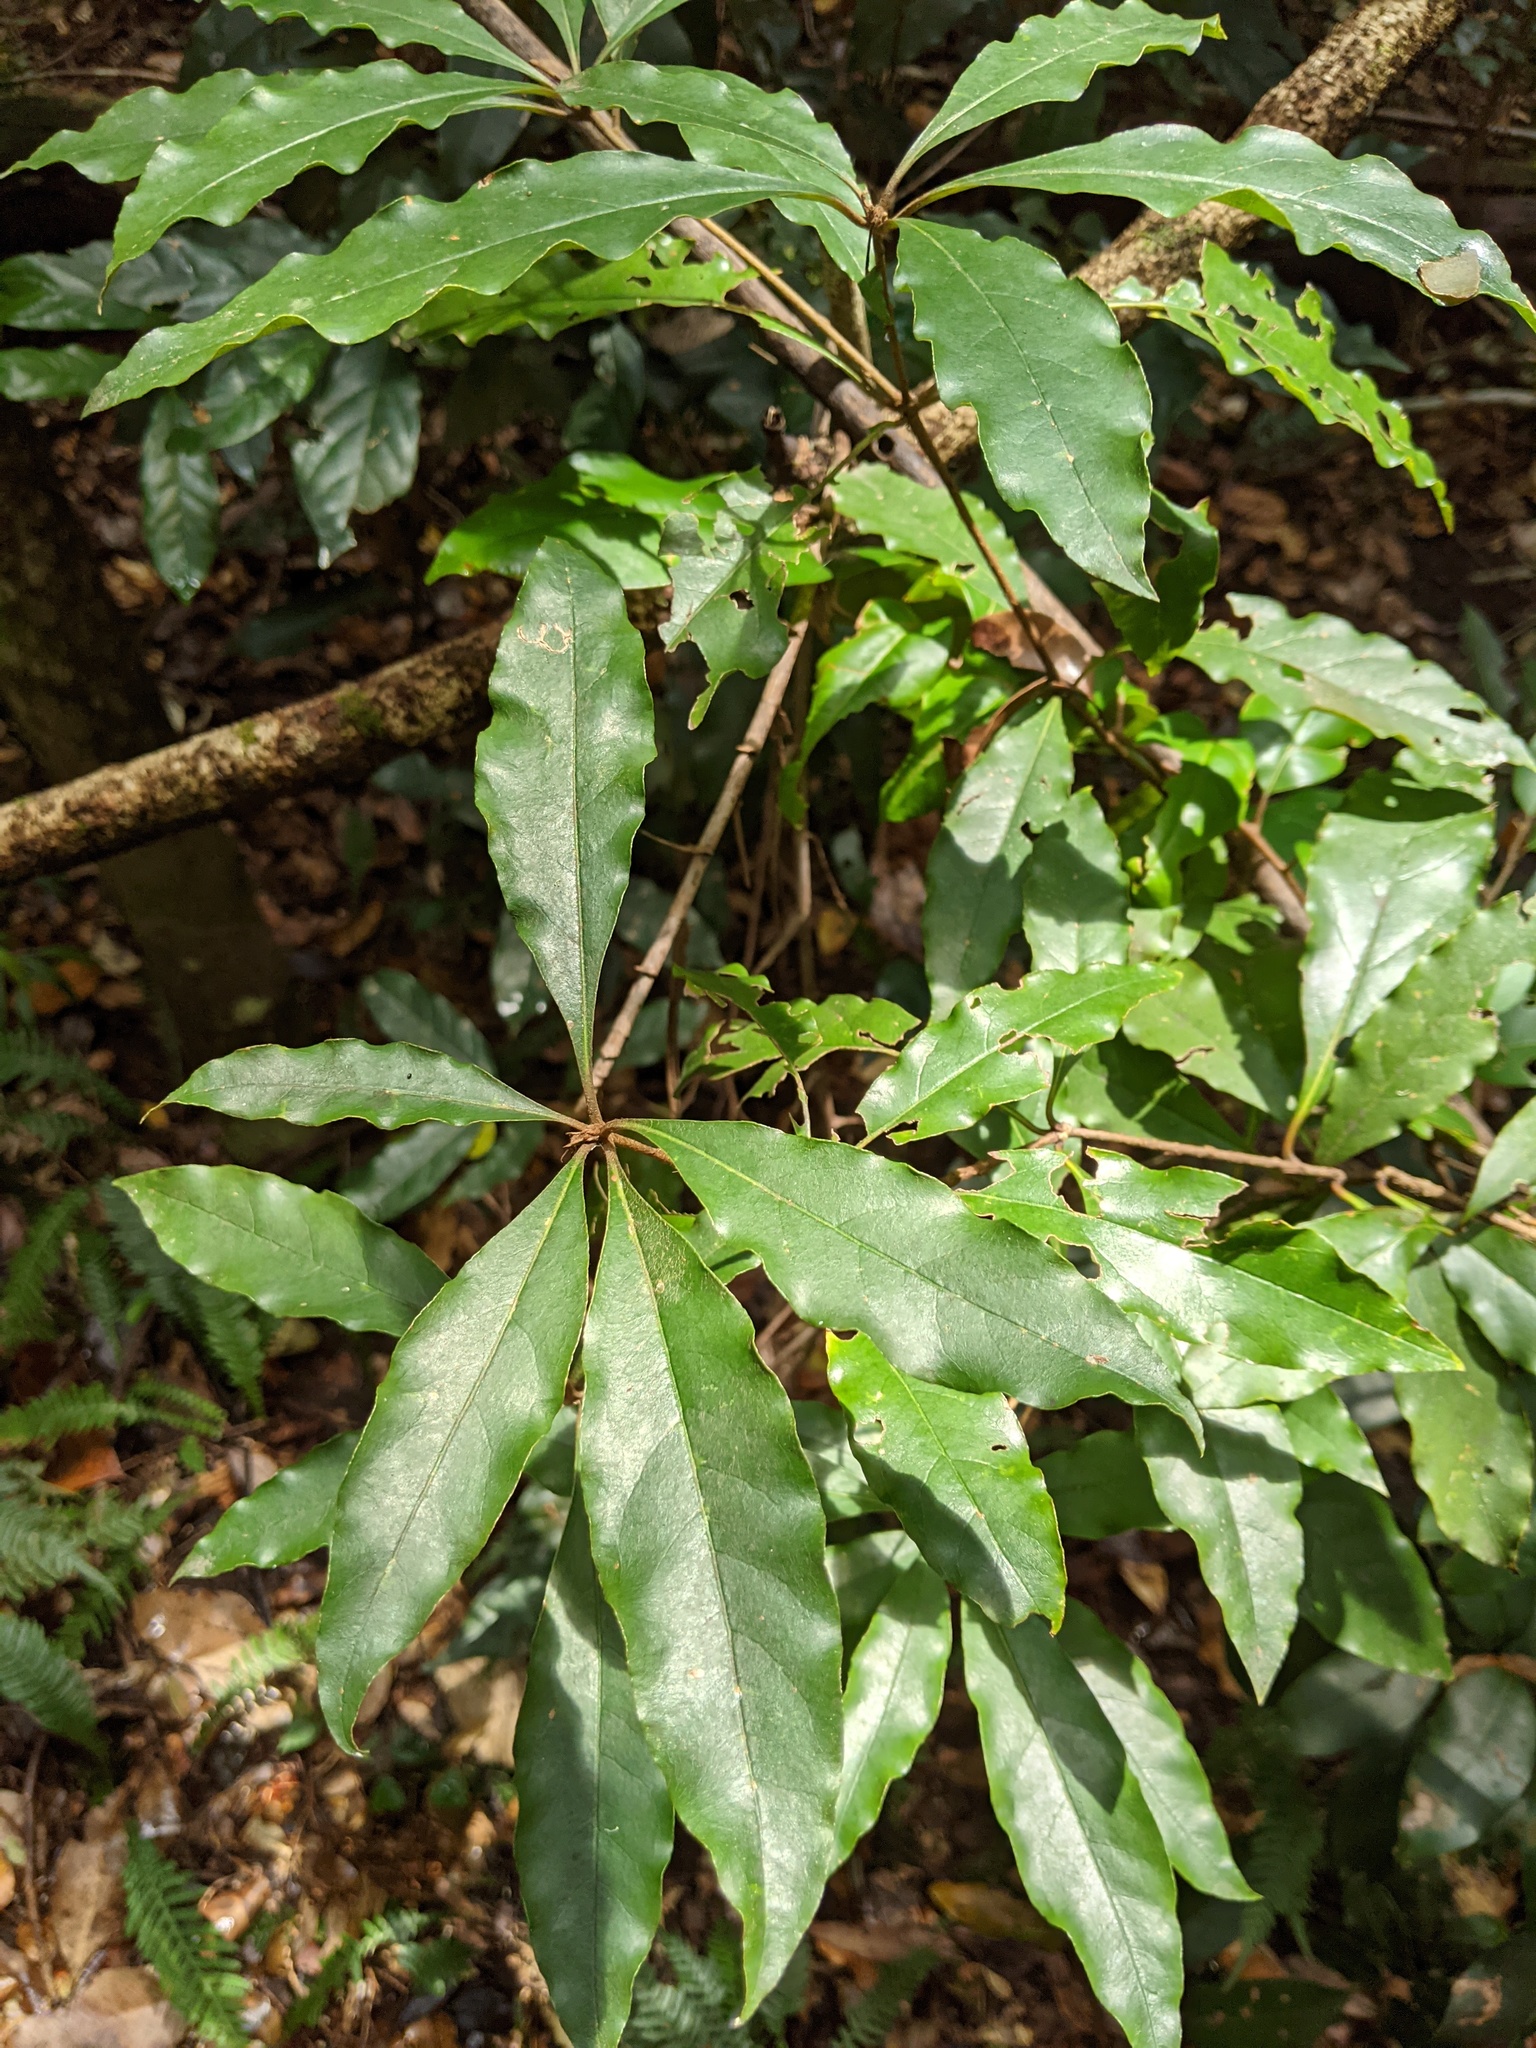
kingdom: Plantae
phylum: Tracheophyta
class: Magnoliopsida
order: Apiales
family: Pittosporaceae
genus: Pittosporum
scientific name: Pittosporum revolutum
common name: Brisbane-laurel
